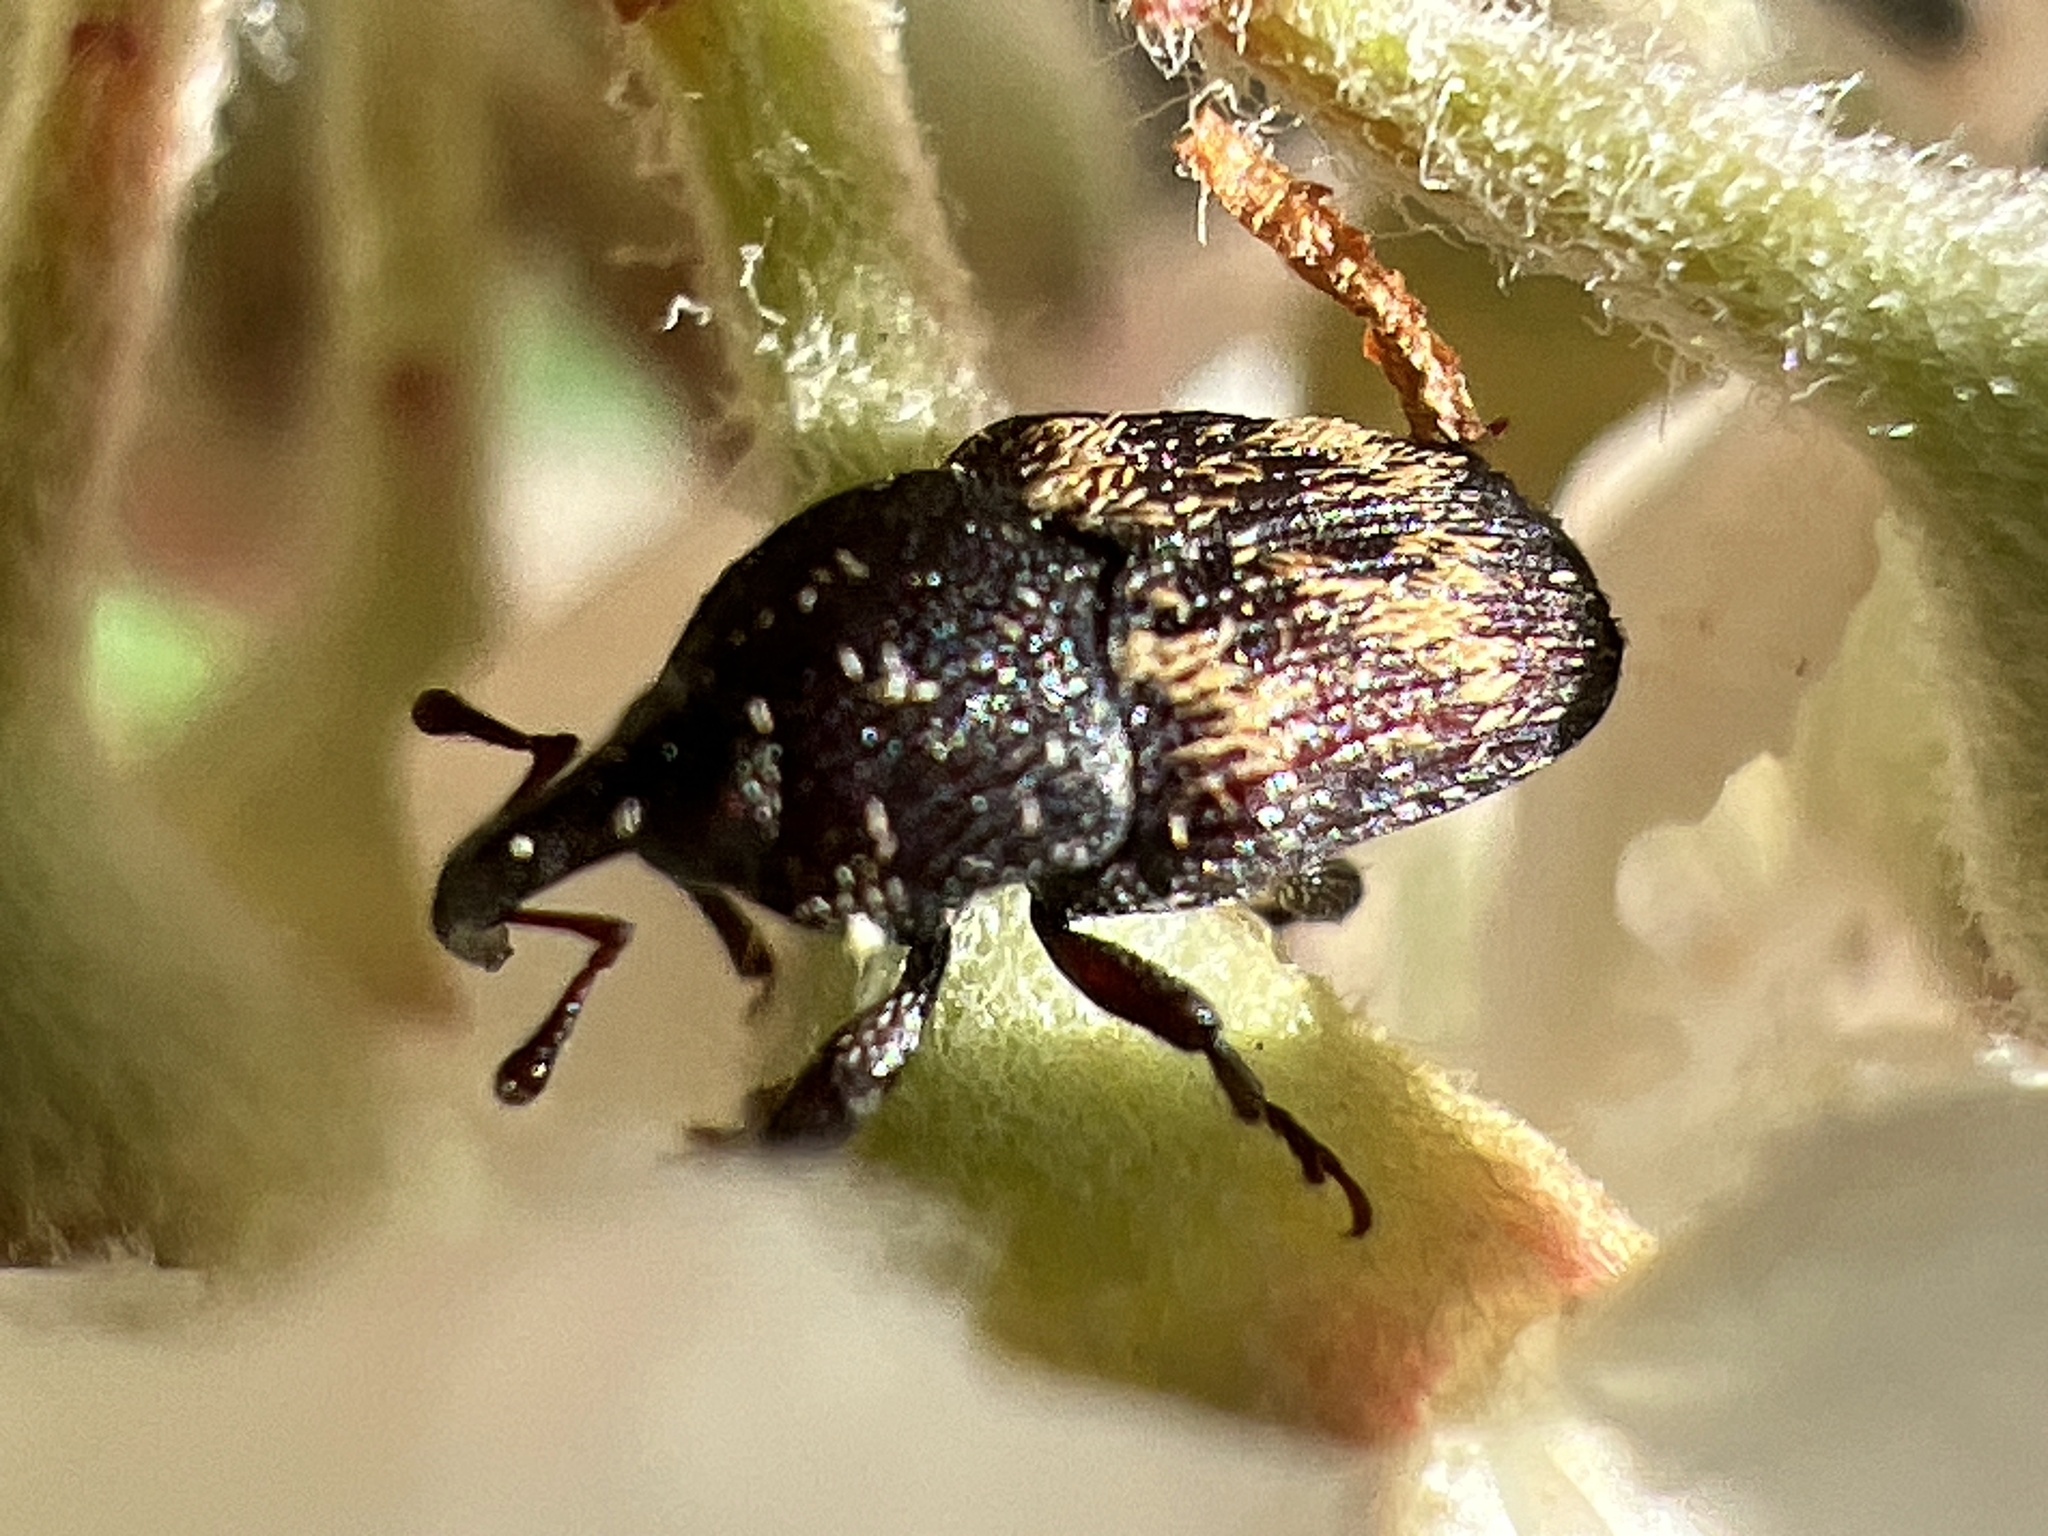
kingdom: Animalia
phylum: Arthropoda
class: Insecta
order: Coleoptera
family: Curculionidae
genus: Glyptobaris
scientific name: Glyptobaris lecontei
